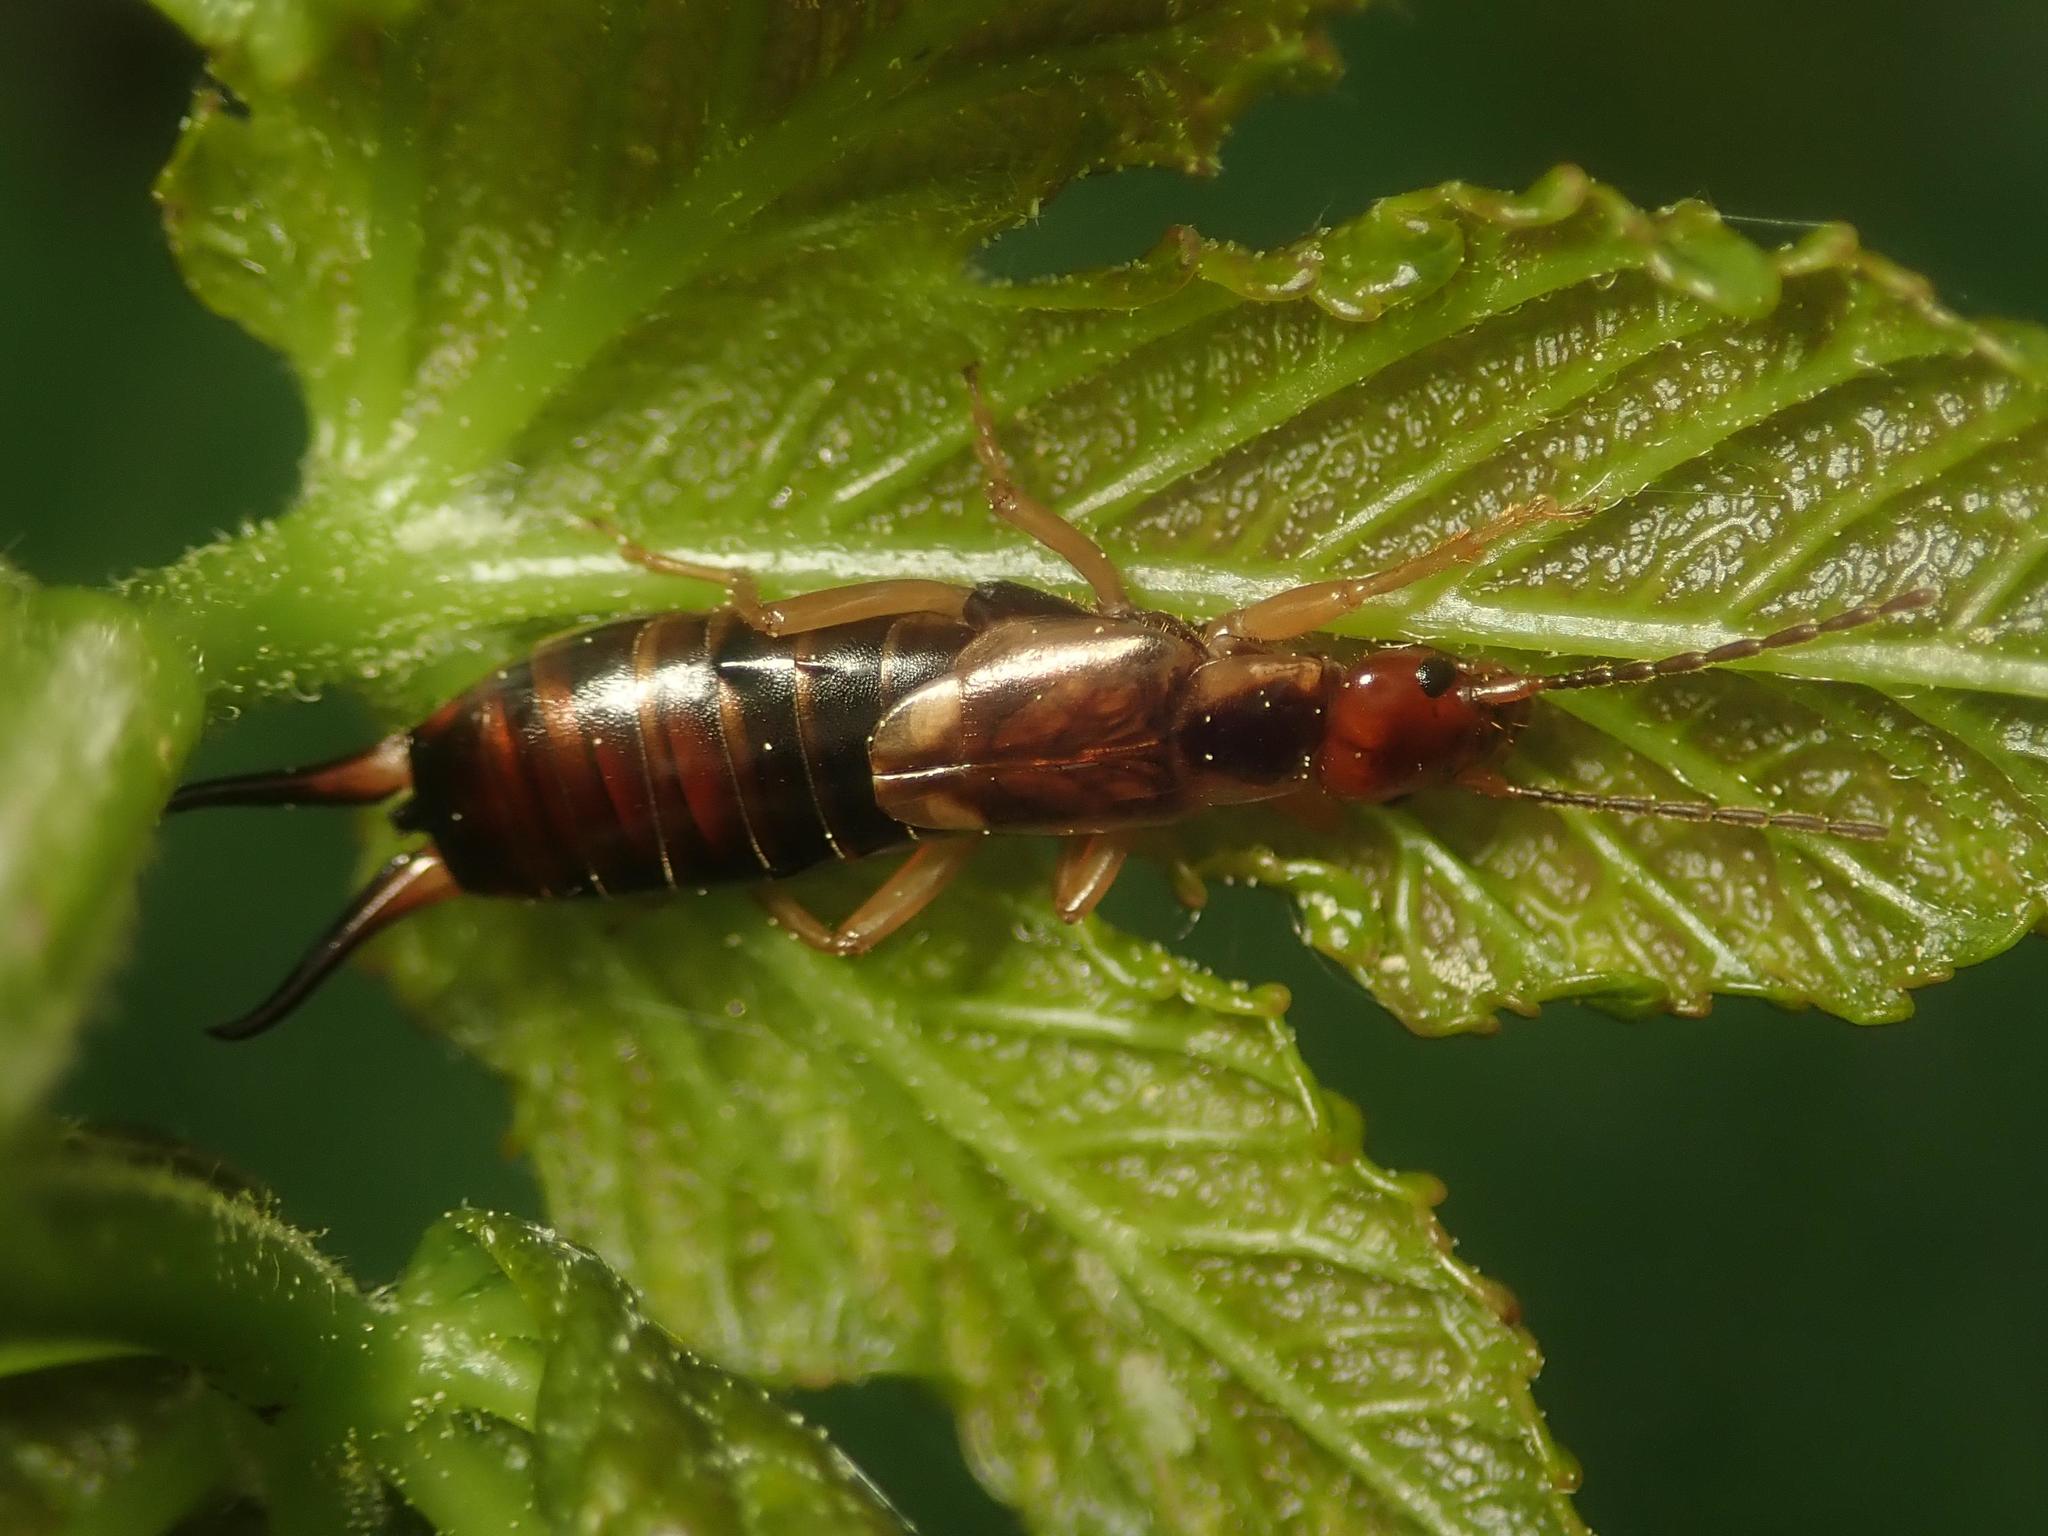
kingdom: Animalia
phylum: Arthropoda
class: Insecta
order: Dermaptera
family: Forficulidae
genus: Forficula
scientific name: Forficula
